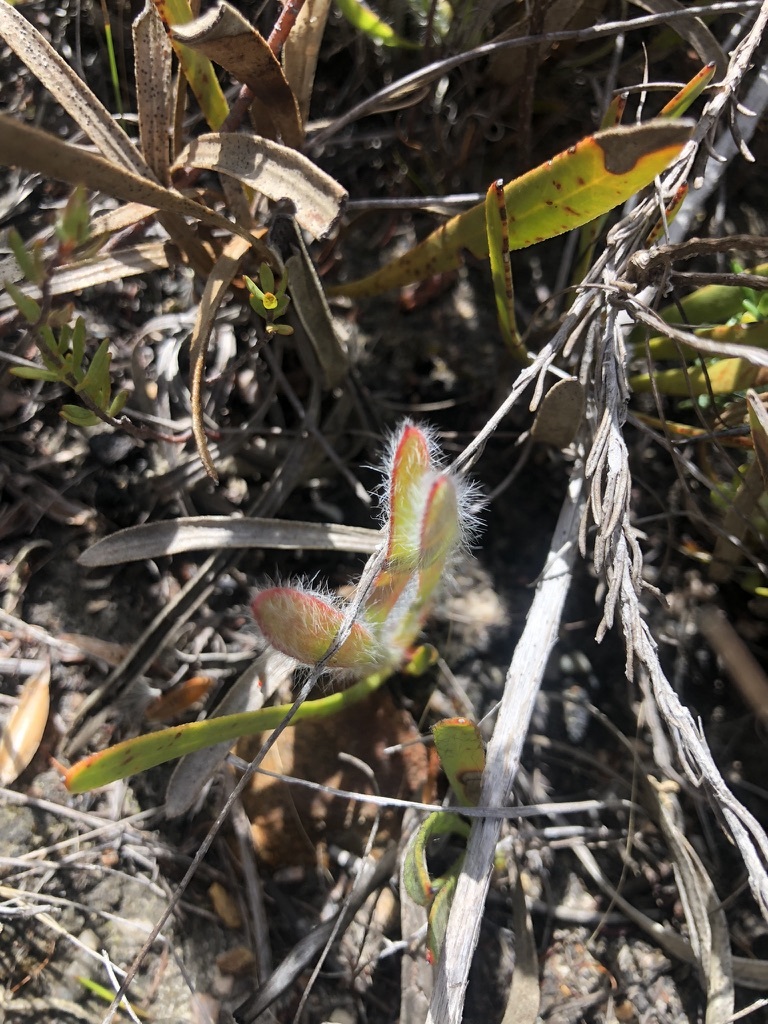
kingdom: Plantae
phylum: Tracheophyta
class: Magnoliopsida
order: Proteales
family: Proteaceae
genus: Protea
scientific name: Protea aspera
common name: Rough-leaf sugarbush
